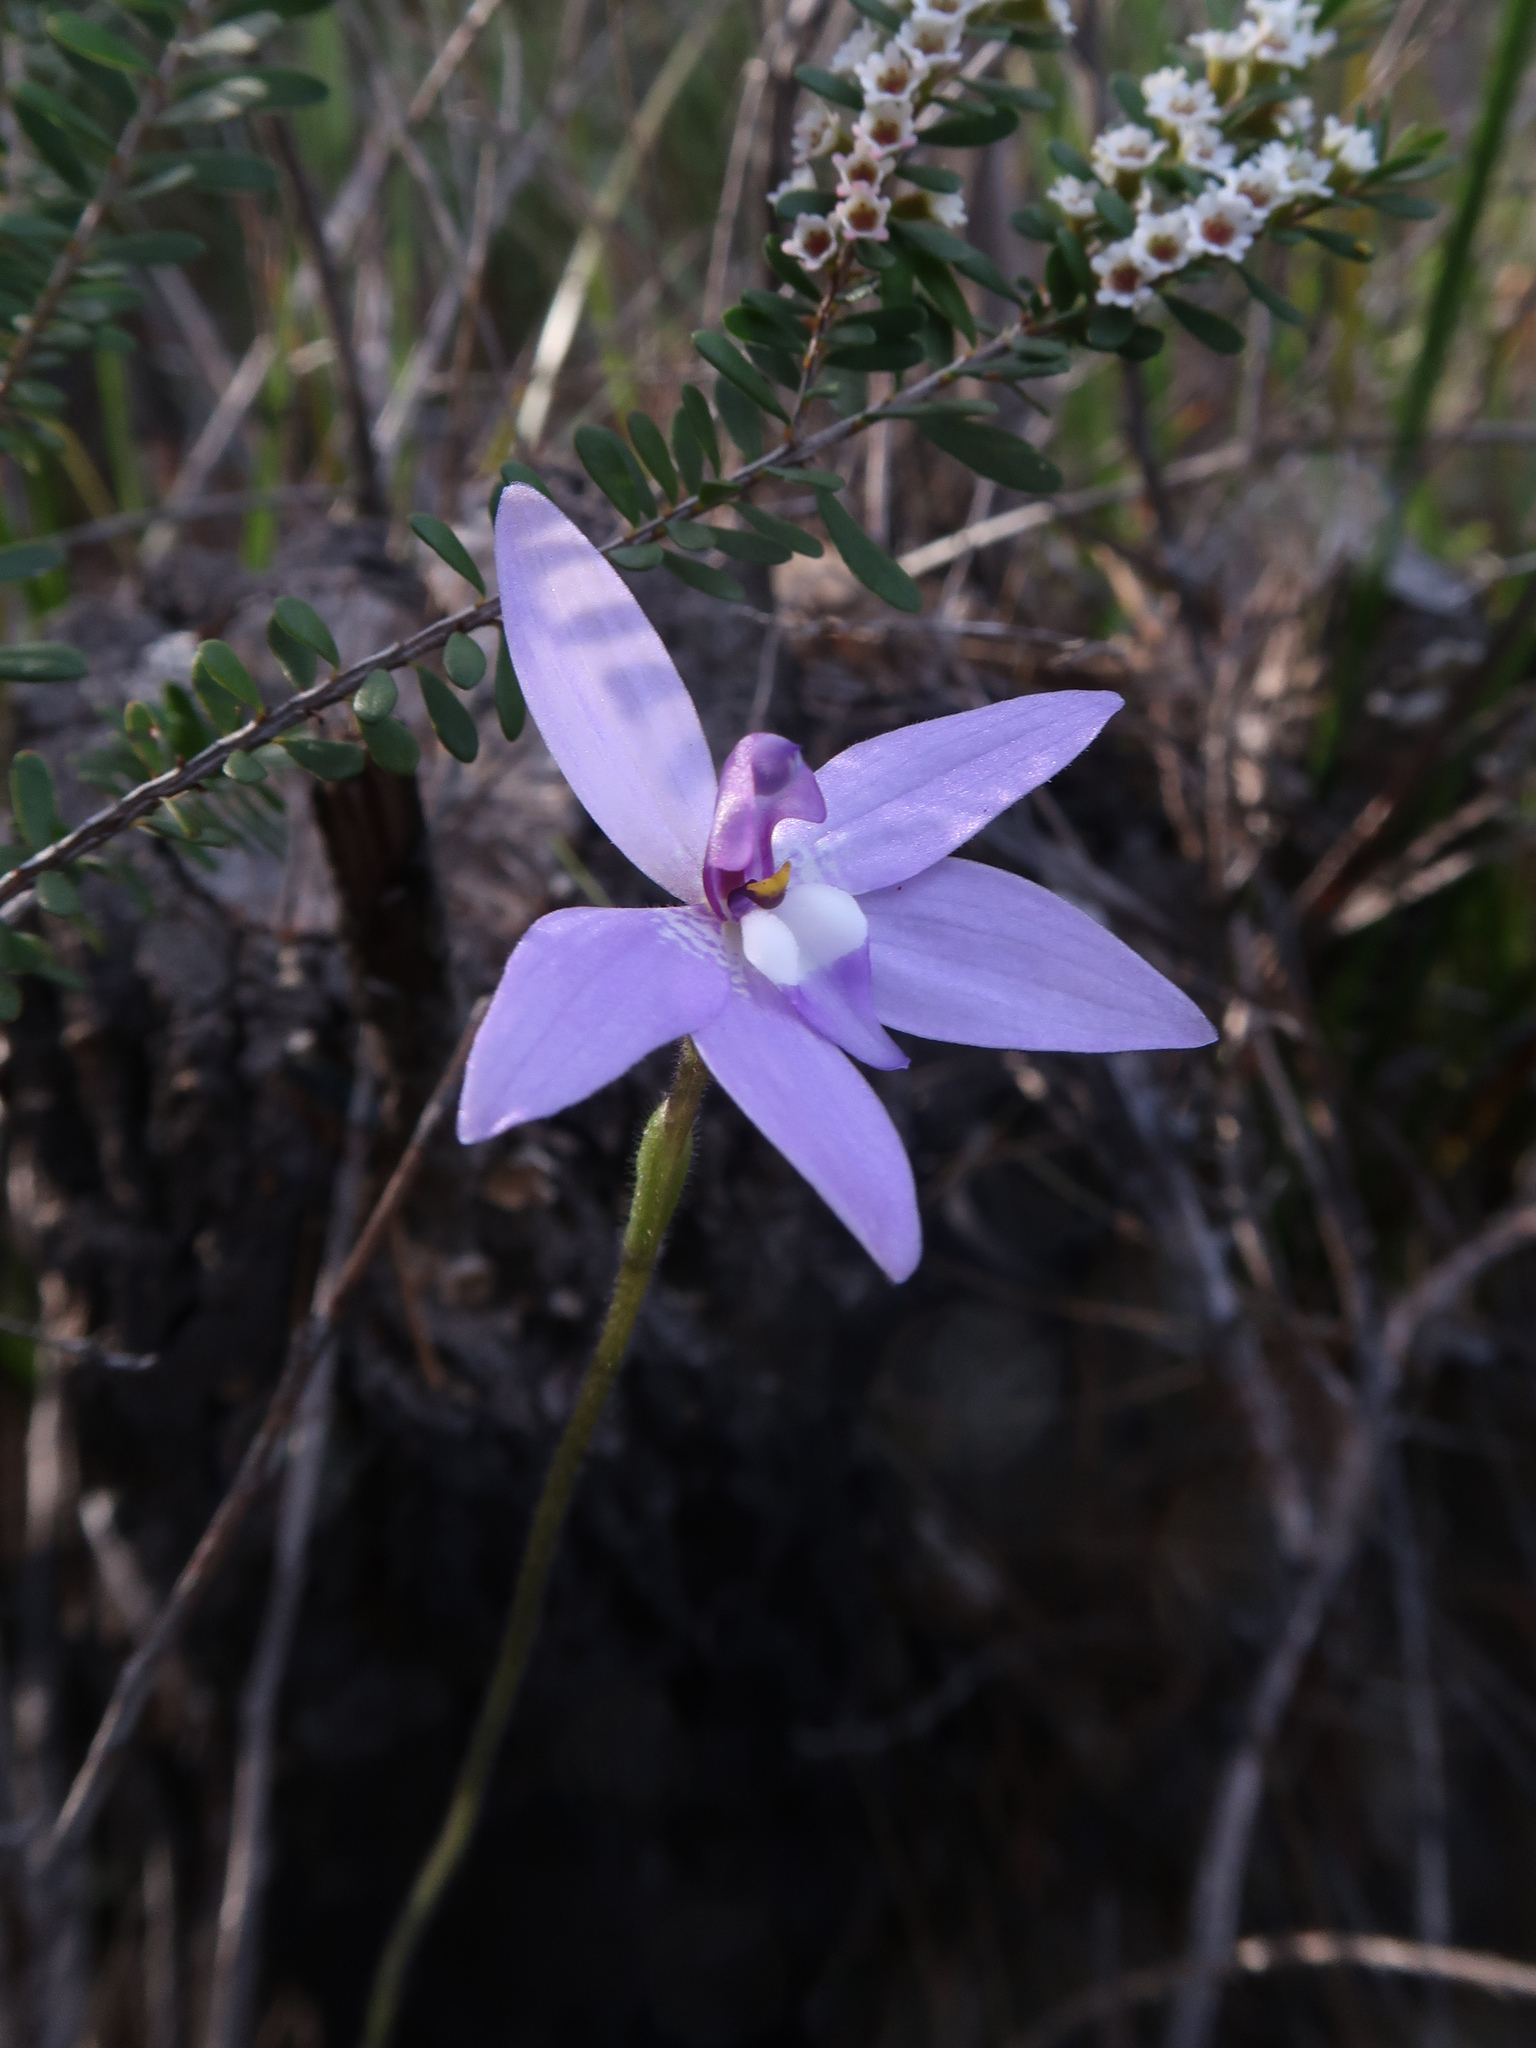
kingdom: Plantae
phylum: Tracheophyta
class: Liliopsida
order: Asparagales
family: Orchidaceae
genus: Caladenia
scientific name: Caladenia major
